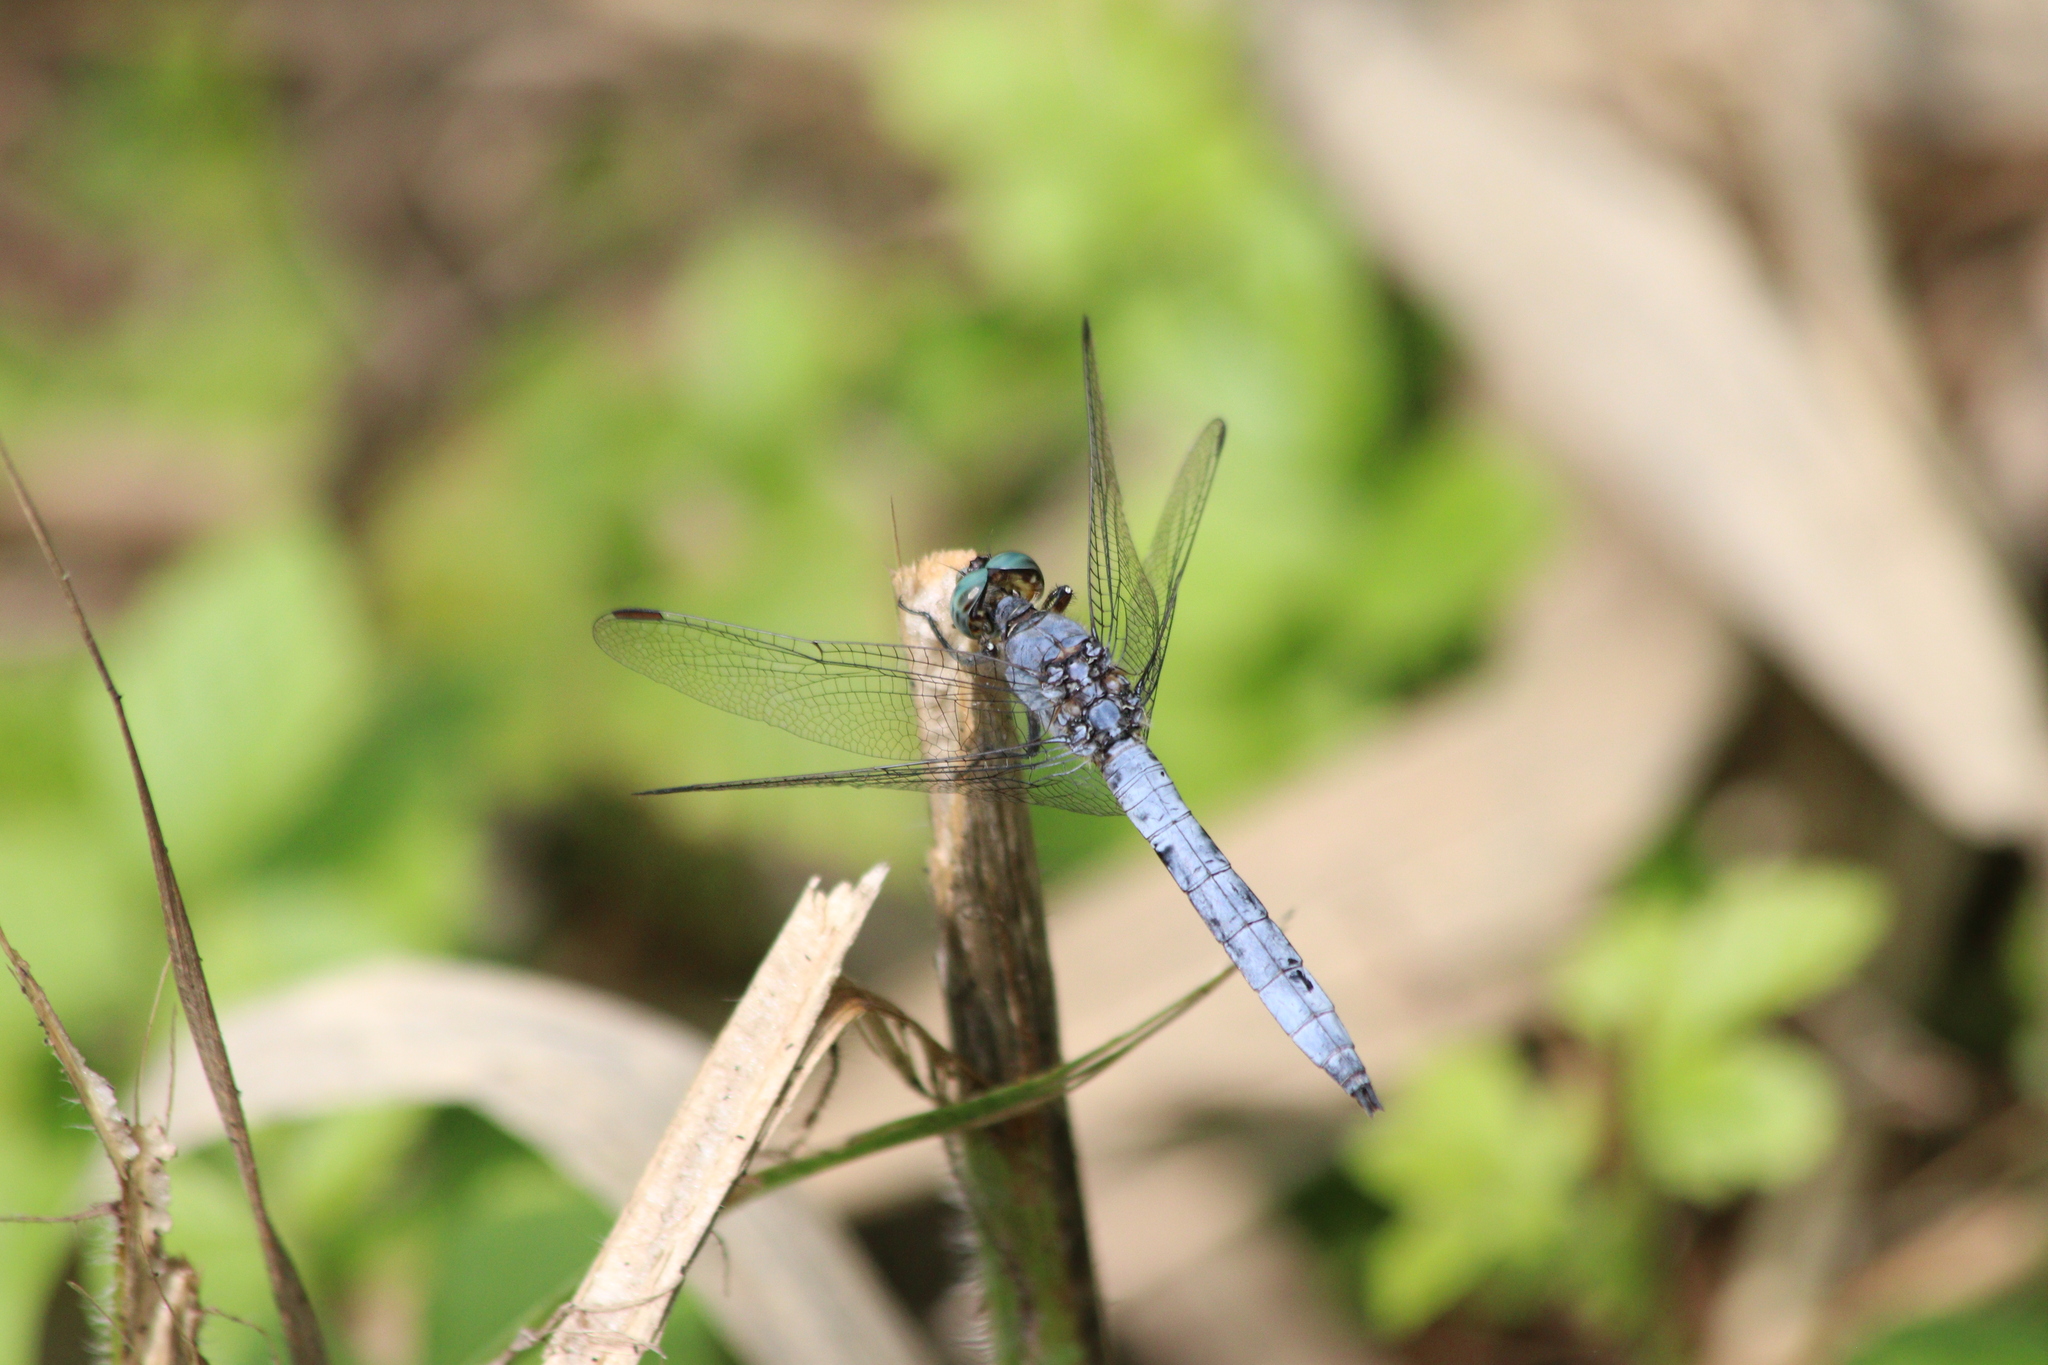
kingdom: Animalia
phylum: Arthropoda
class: Insecta
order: Odonata
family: Libellulidae
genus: Orthetrum
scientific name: Orthetrum coerulescens
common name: Keeled skimmer
